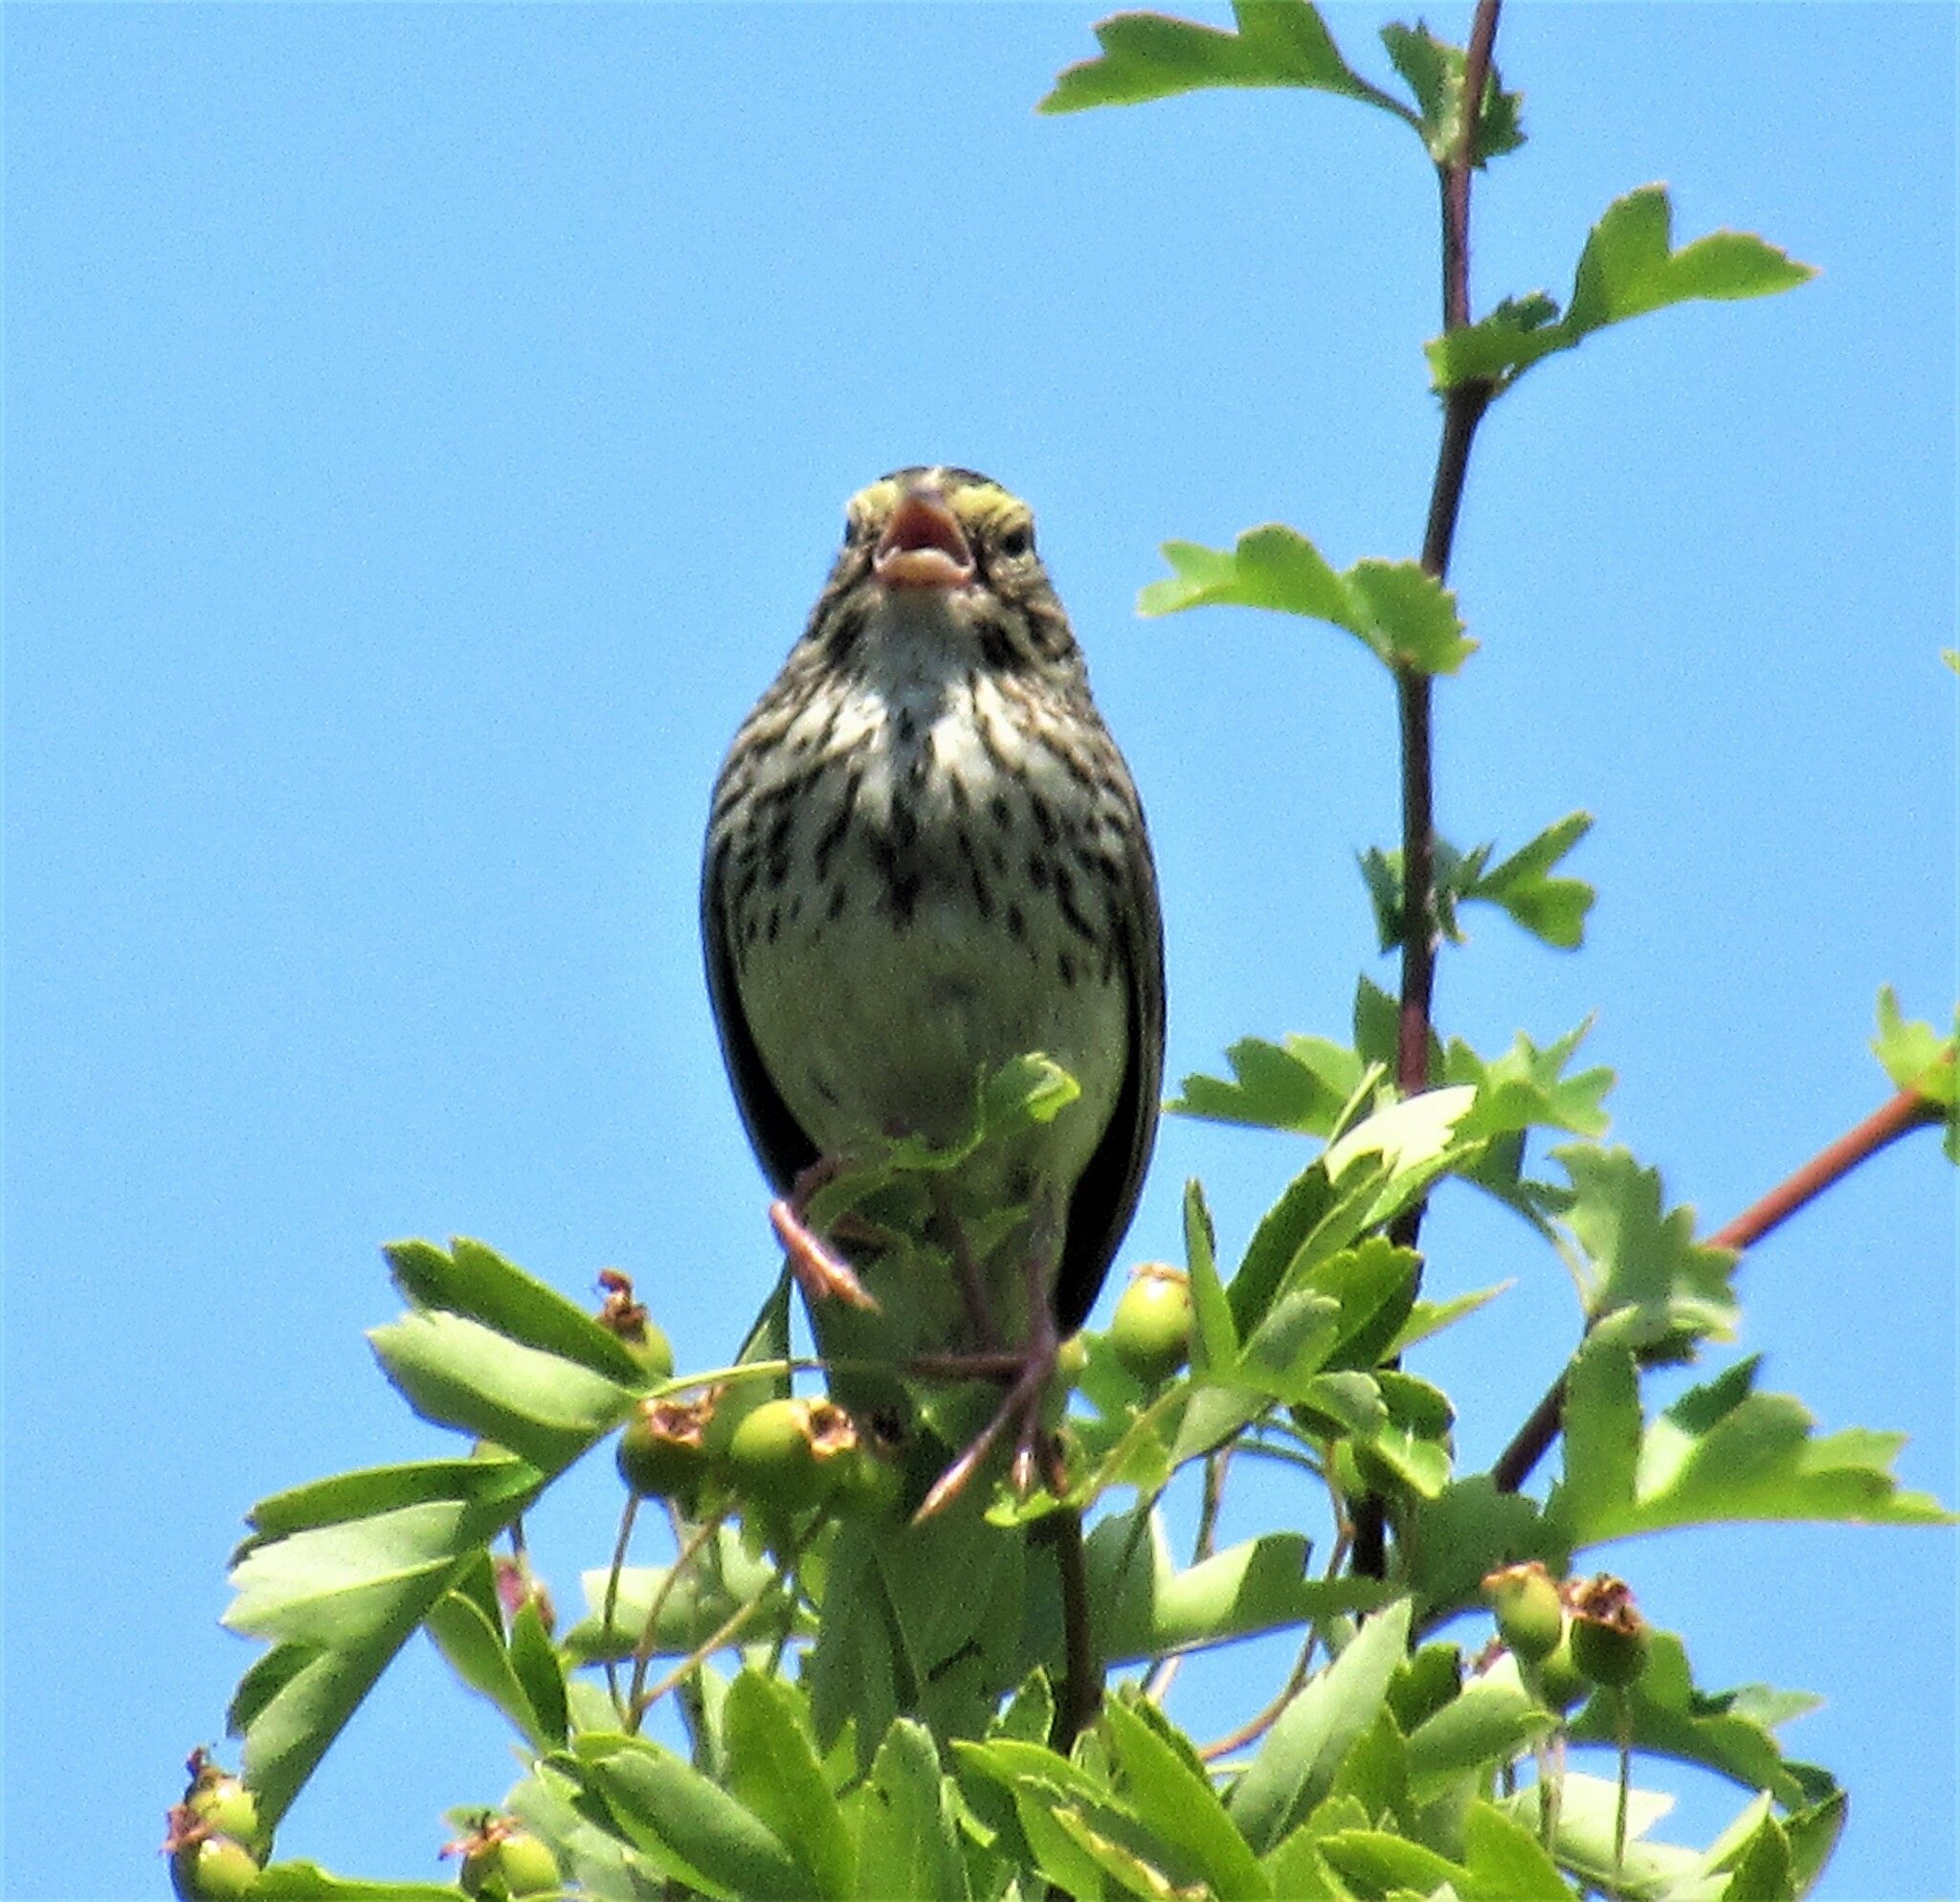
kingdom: Animalia
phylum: Chordata
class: Aves
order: Passeriformes
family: Passerellidae
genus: Passerculus
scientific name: Passerculus sandwichensis
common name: Savannah sparrow
